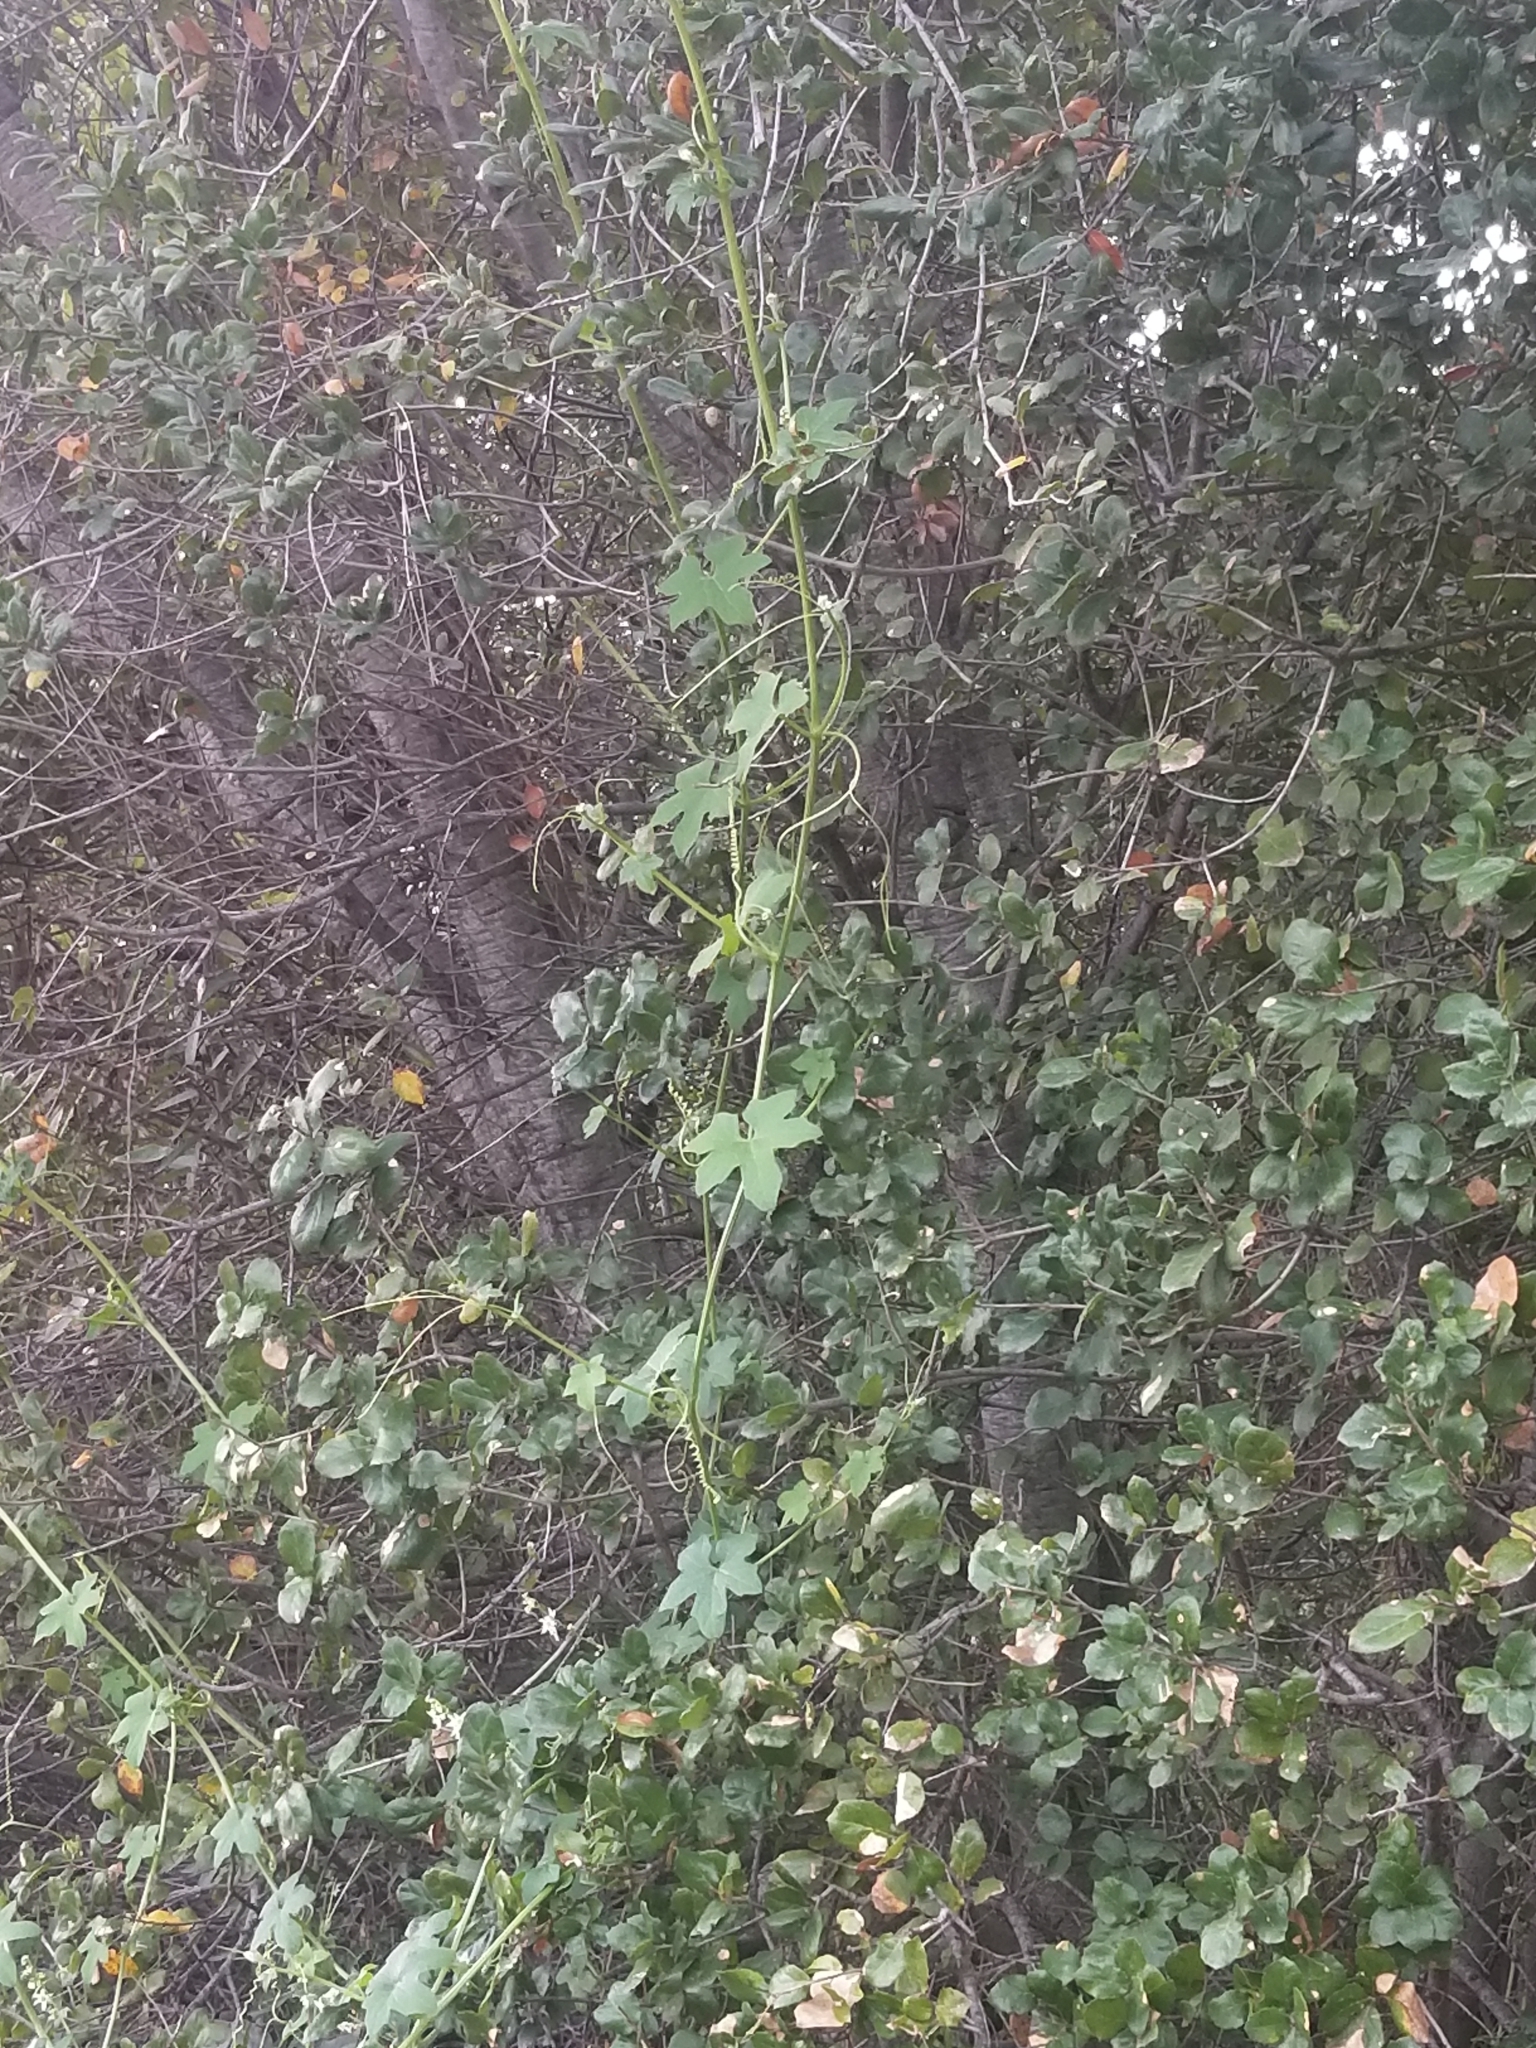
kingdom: Plantae
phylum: Tracheophyta
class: Magnoliopsida
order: Cucurbitales
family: Cucurbitaceae
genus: Marah
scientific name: Marah macrocarpa
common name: Cucamonga manroot
